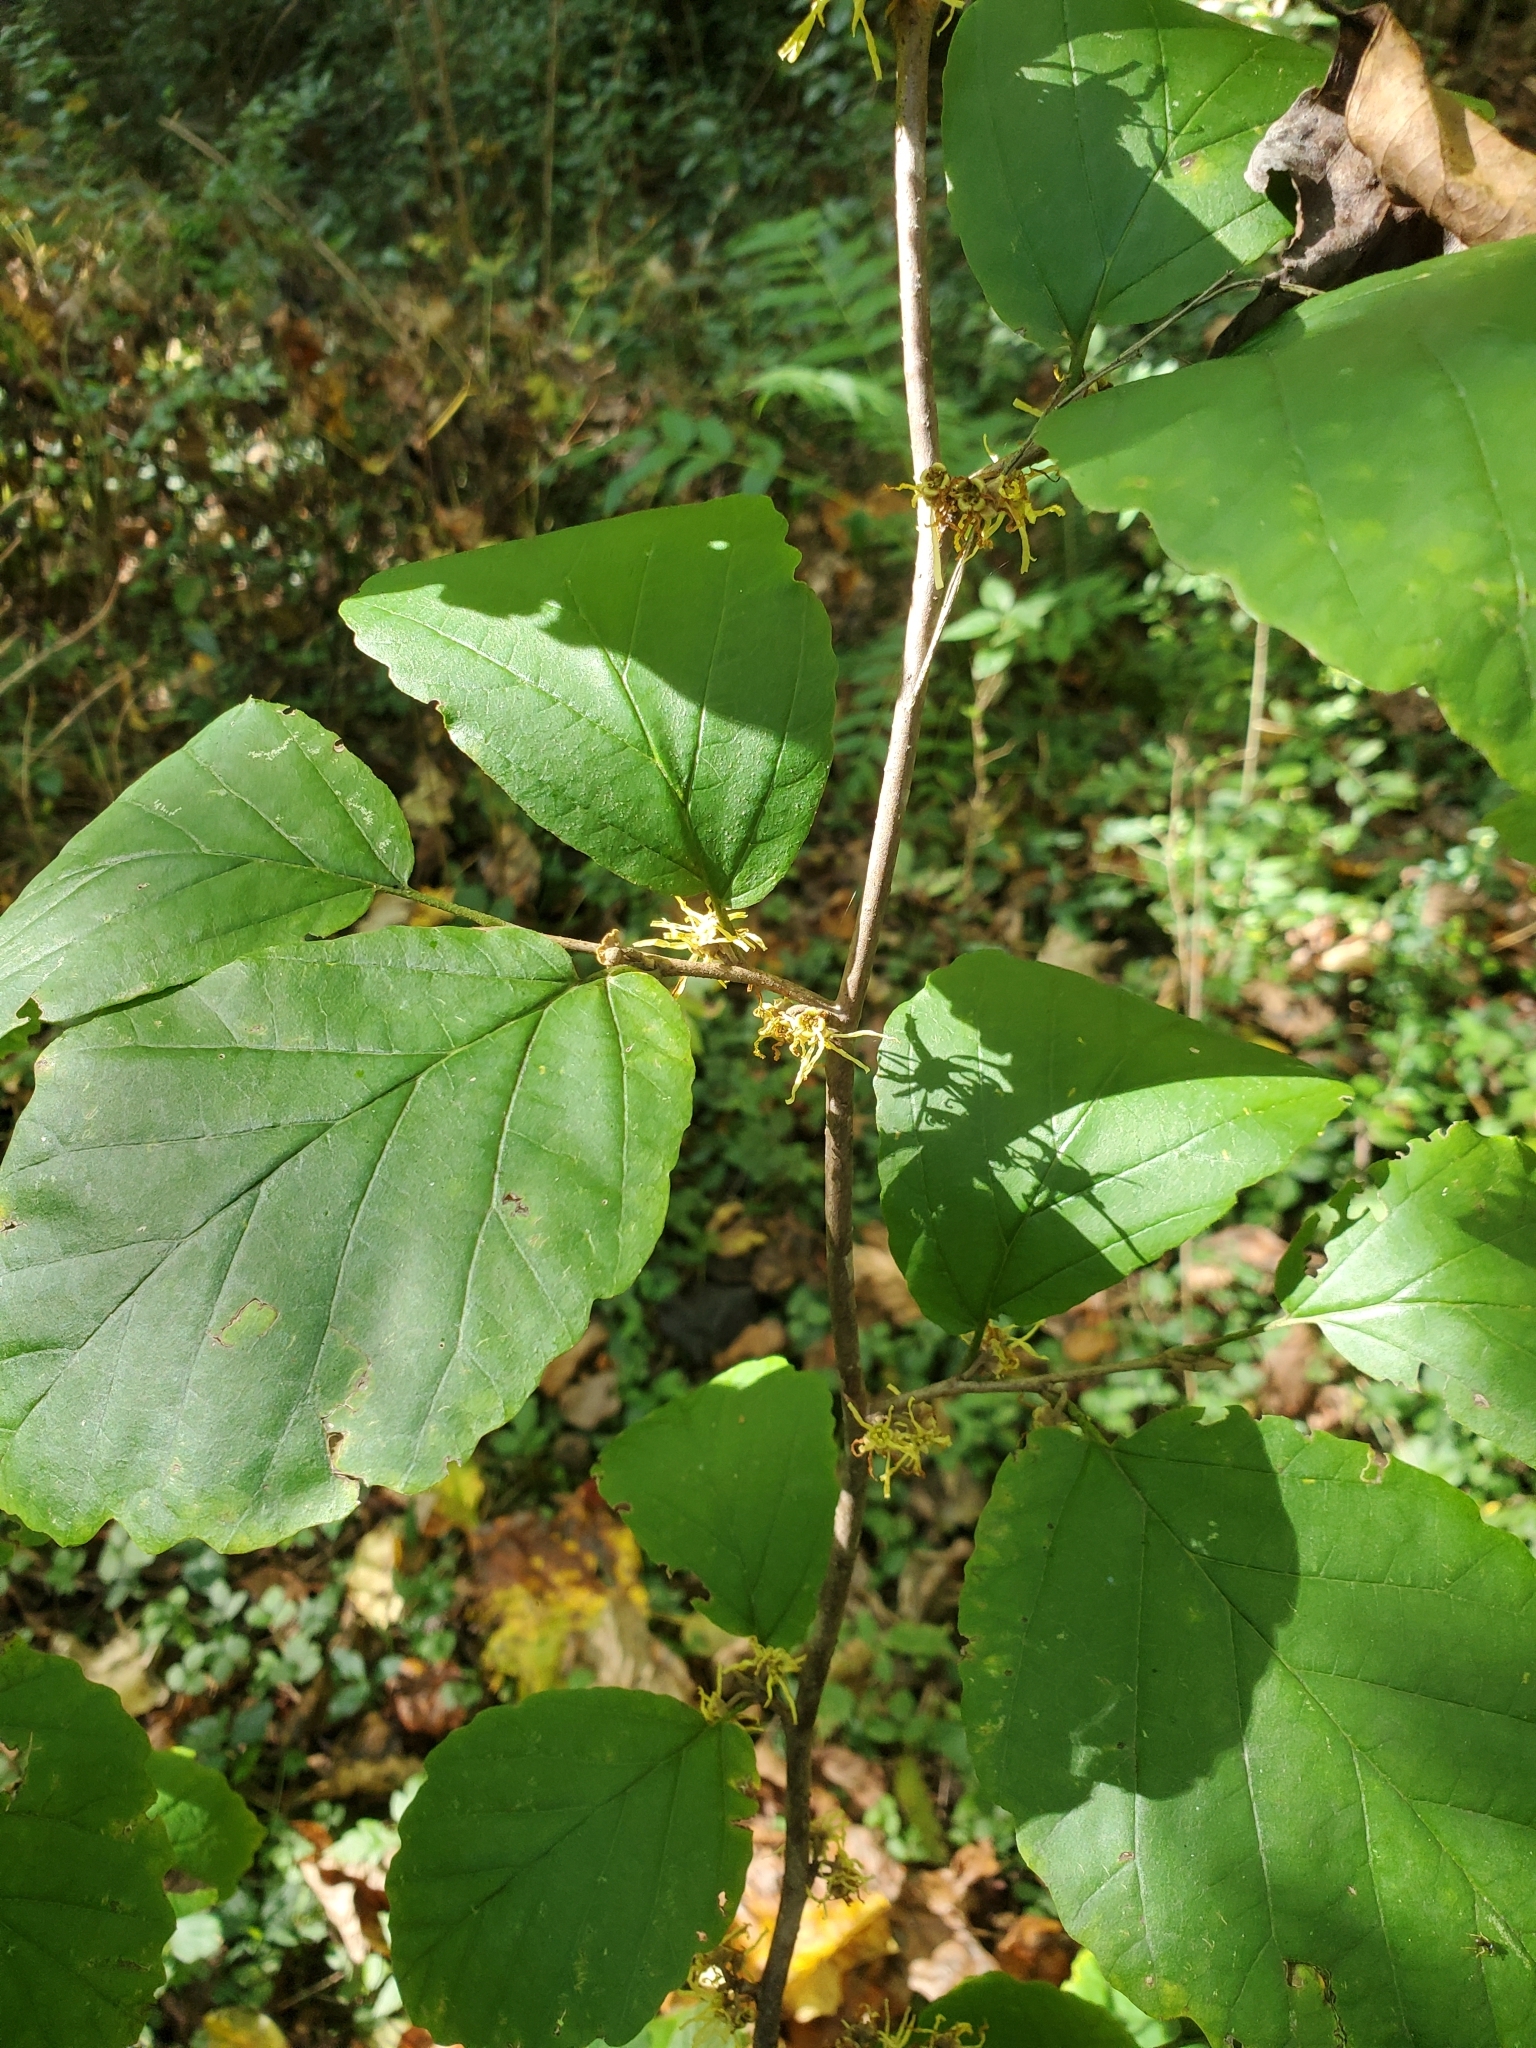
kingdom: Plantae
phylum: Tracheophyta
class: Magnoliopsida
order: Saxifragales
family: Hamamelidaceae
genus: Hamamelis
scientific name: Hamamelis virginiana
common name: Witch-hazel
